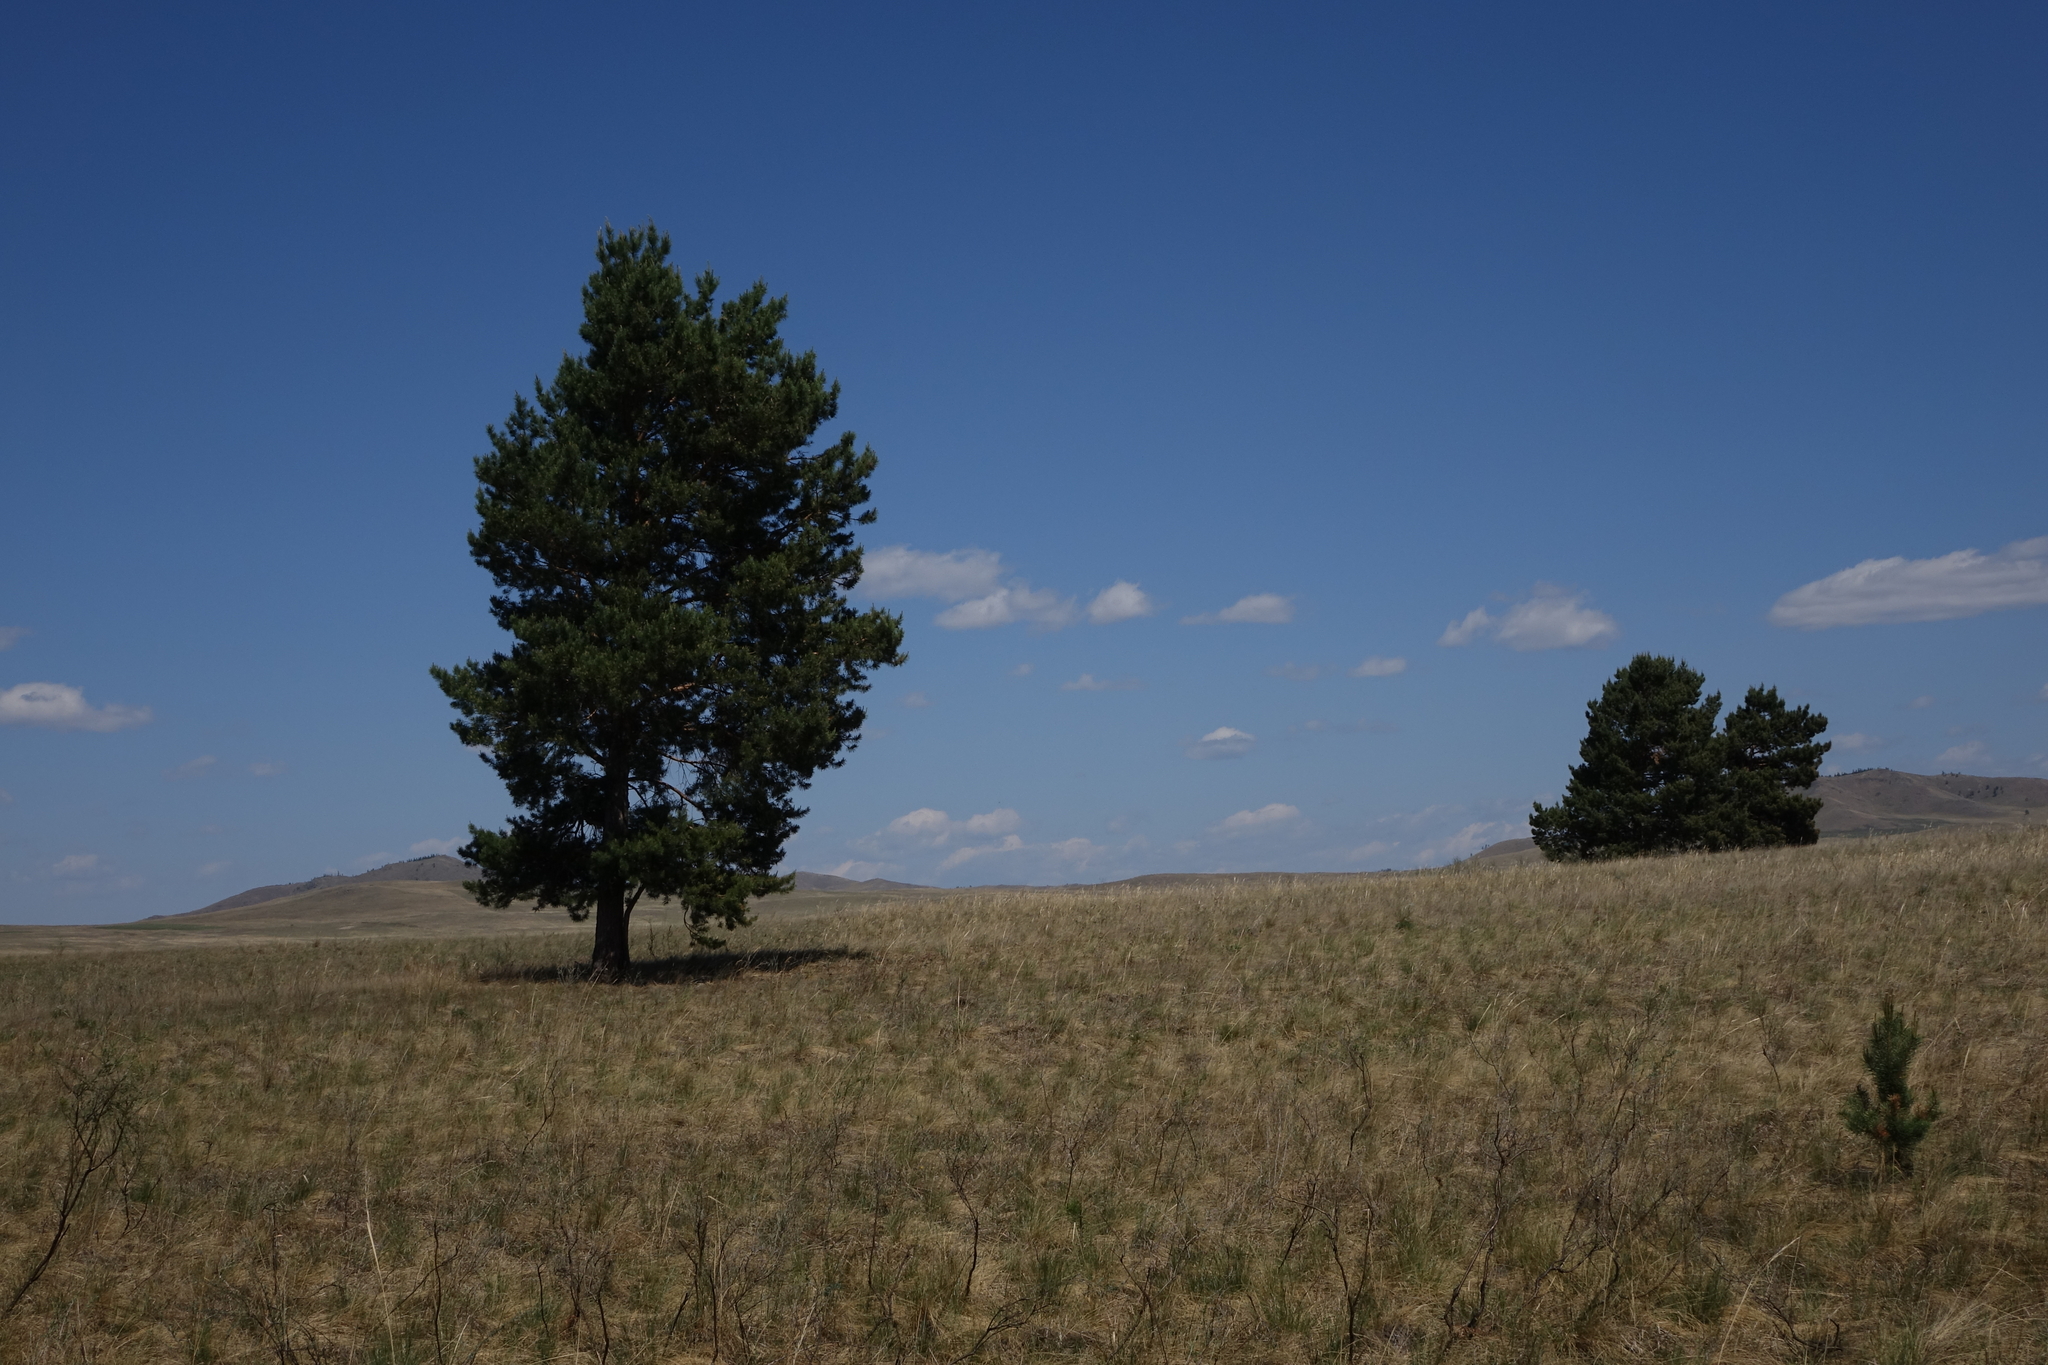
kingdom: Plantae
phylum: Tracheophyta
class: Pinopsida
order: Pinales
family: Pinaceae
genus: Pinus
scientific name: Pinus sylvestris
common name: Scots pine
